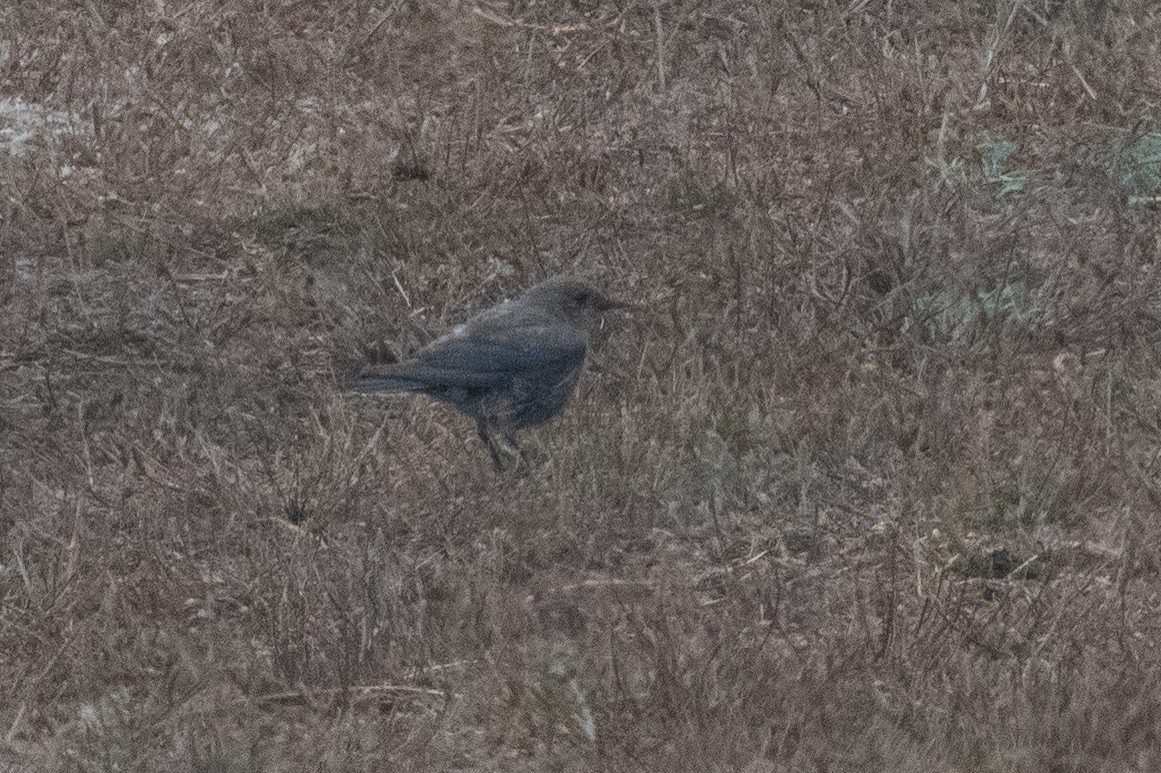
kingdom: Animalia
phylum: Chordata
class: Aves
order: Passeriformes
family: Turdidae
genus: Sialia
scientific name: Sialia mexicana
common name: Western bluebird
